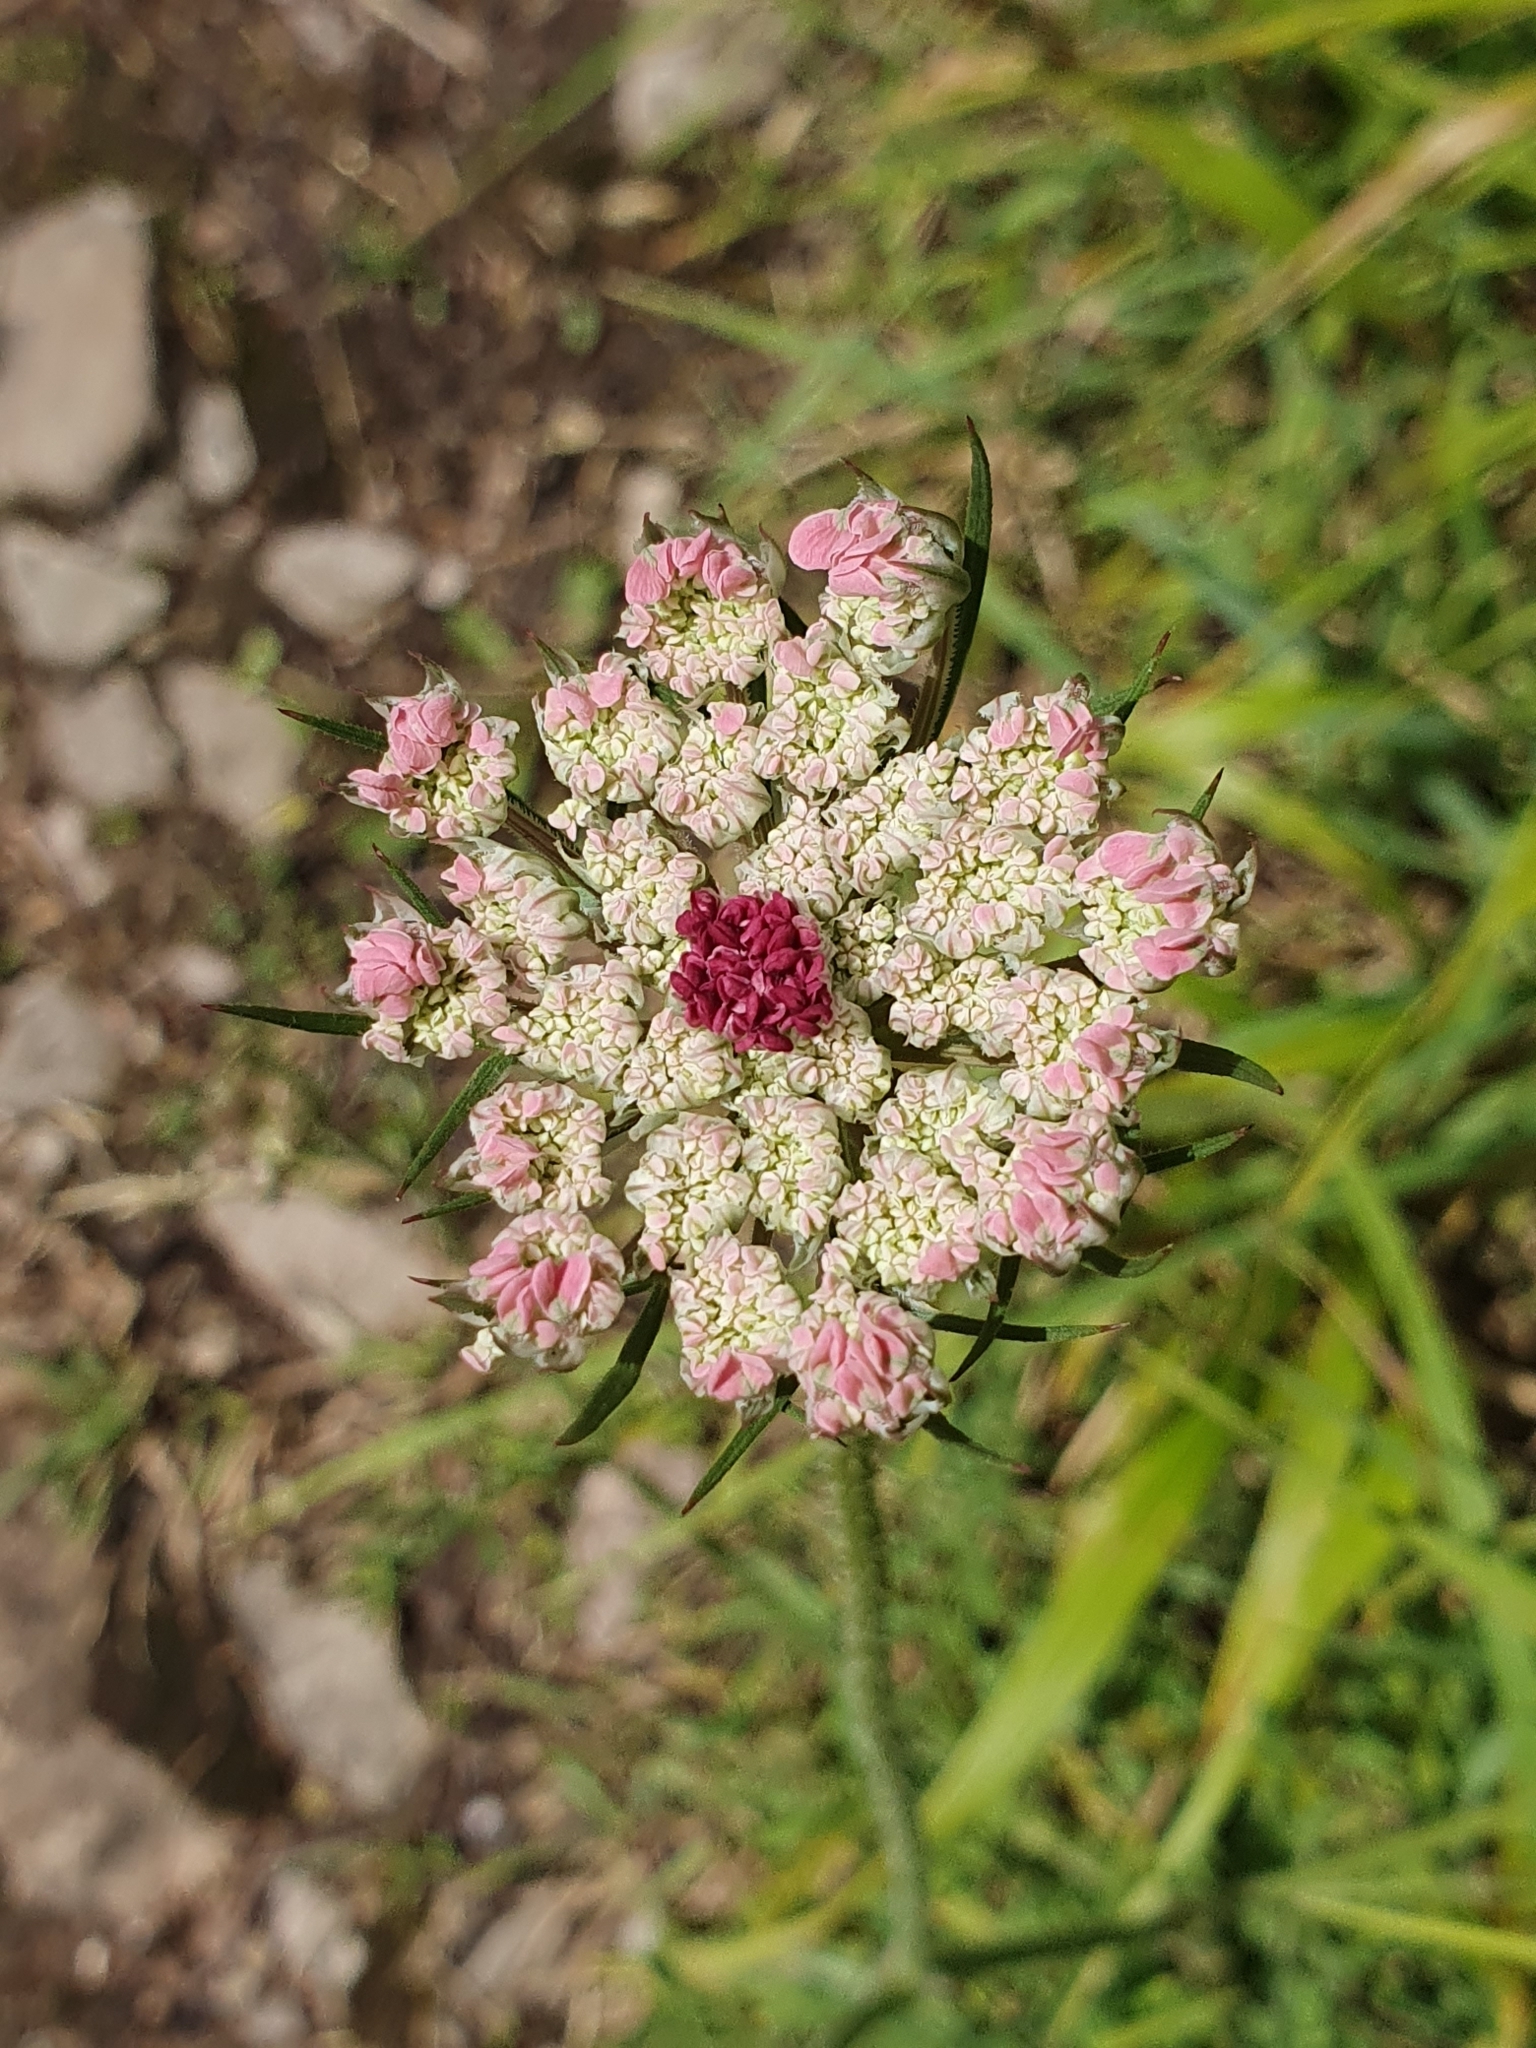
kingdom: Plantae
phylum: Tracheophyta
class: Magnoliopsida
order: Apiales
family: Apiaceae
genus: Daucus
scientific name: Daucus carota
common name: Wild carrot
